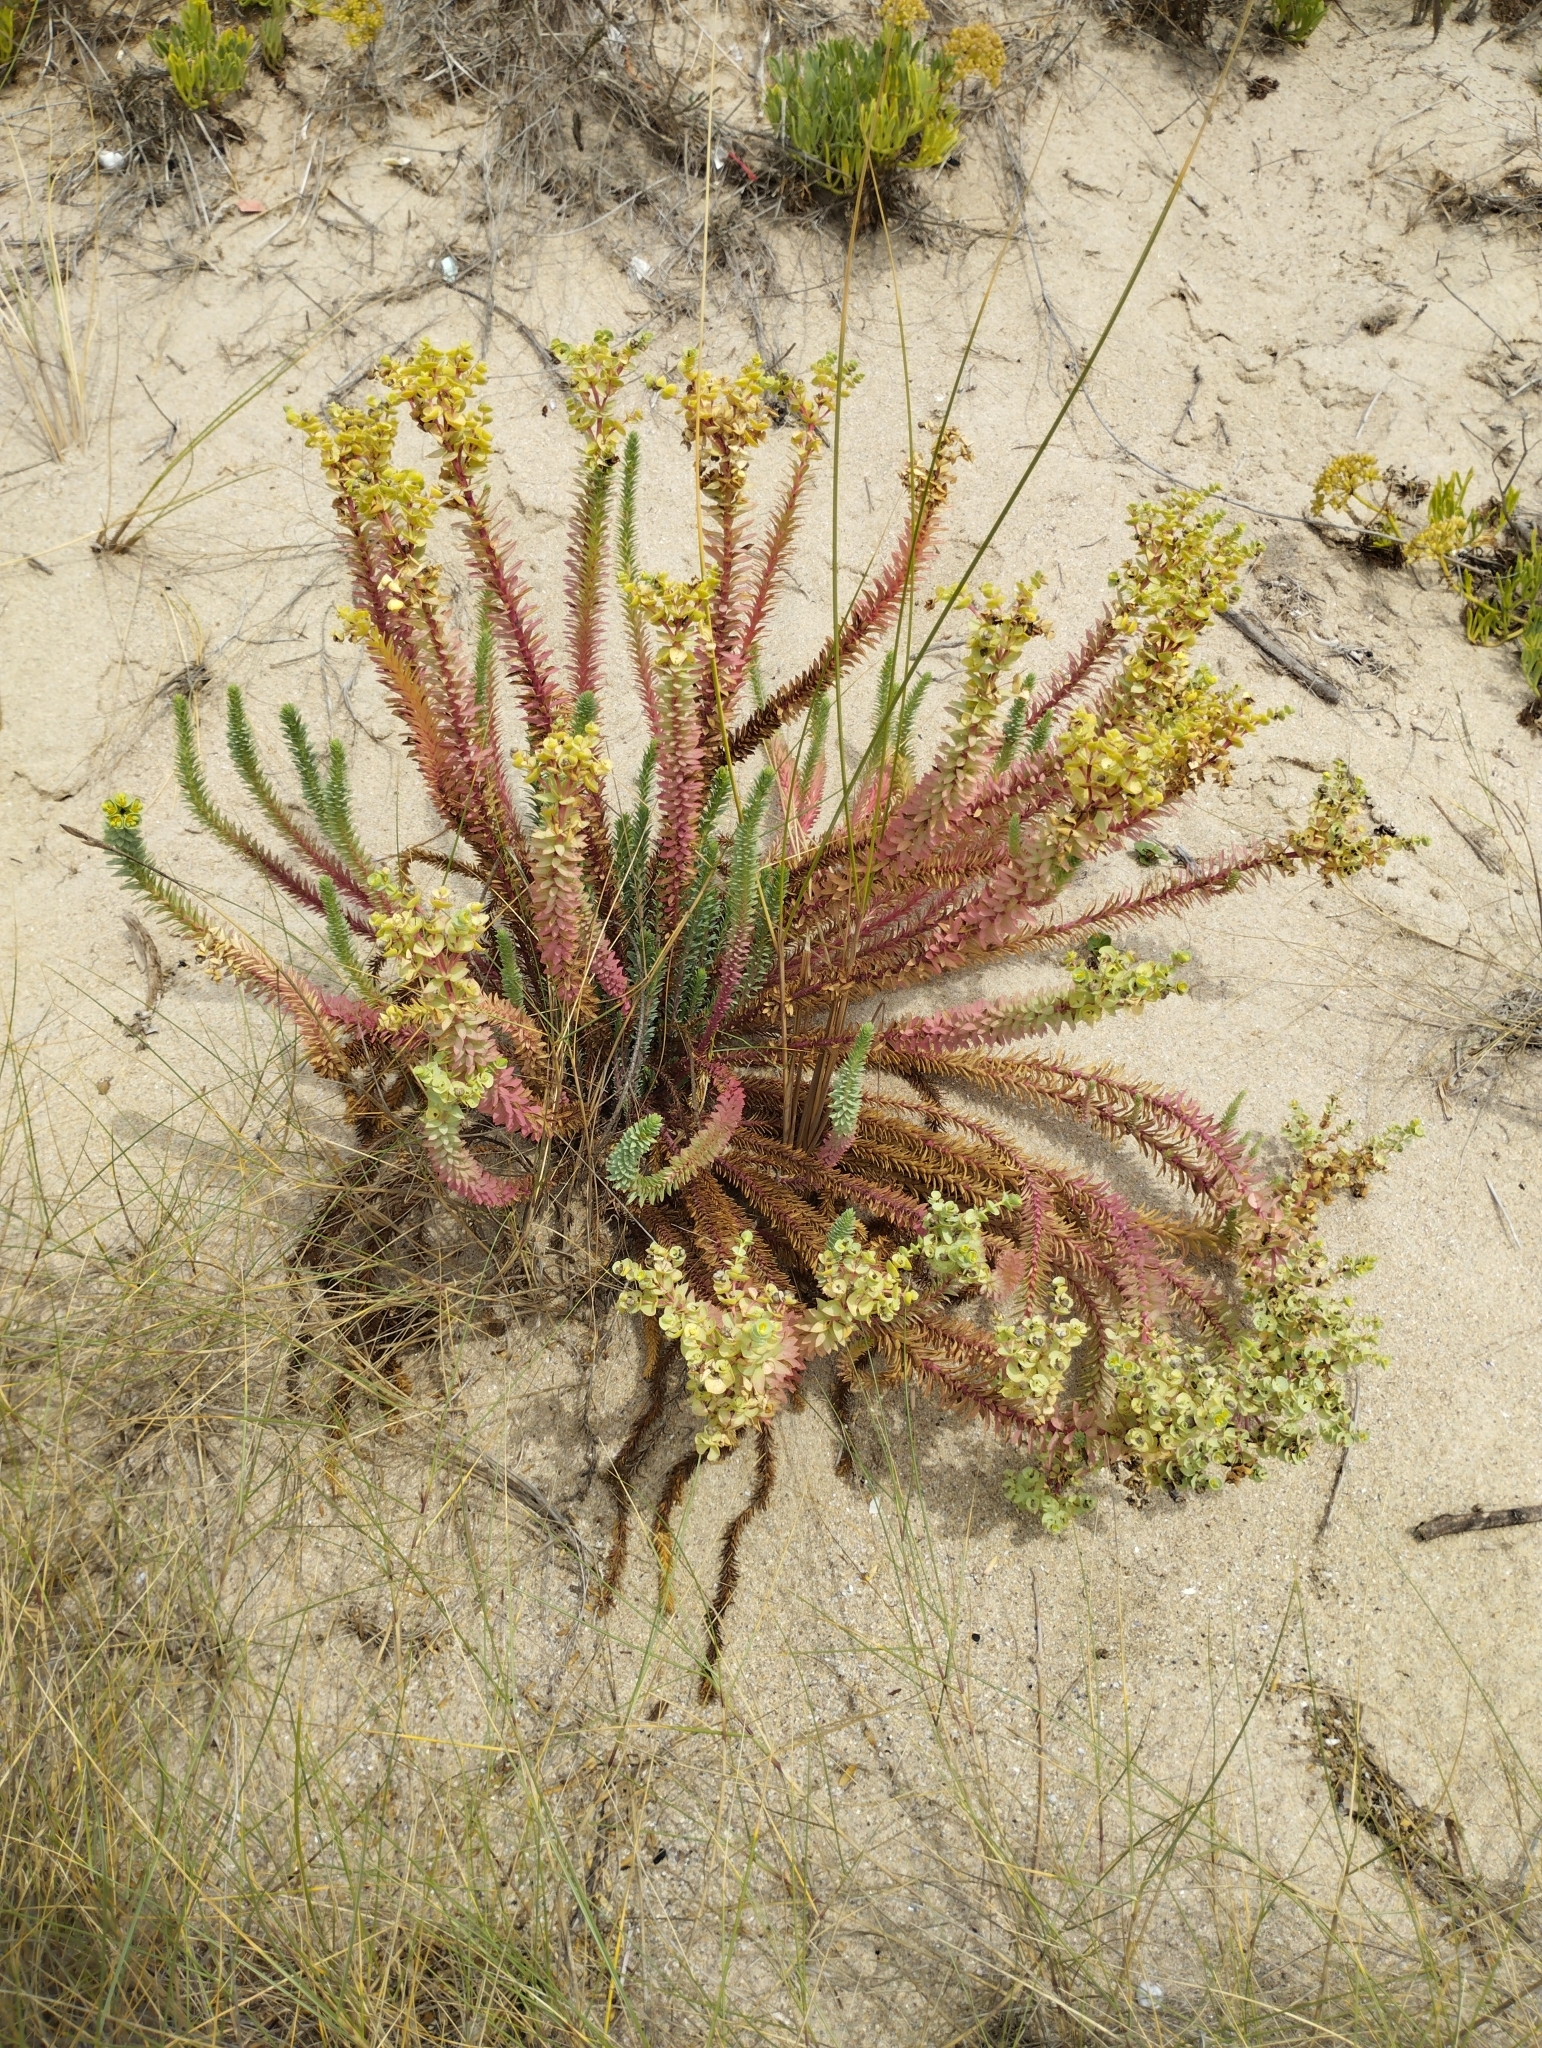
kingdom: Plantae
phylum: Tracheophyta
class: Magnoliopsida
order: Malpighiales
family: Euphorbiaceae
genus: Euphorbia
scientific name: Euphorbia paralias
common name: Sea spurge
